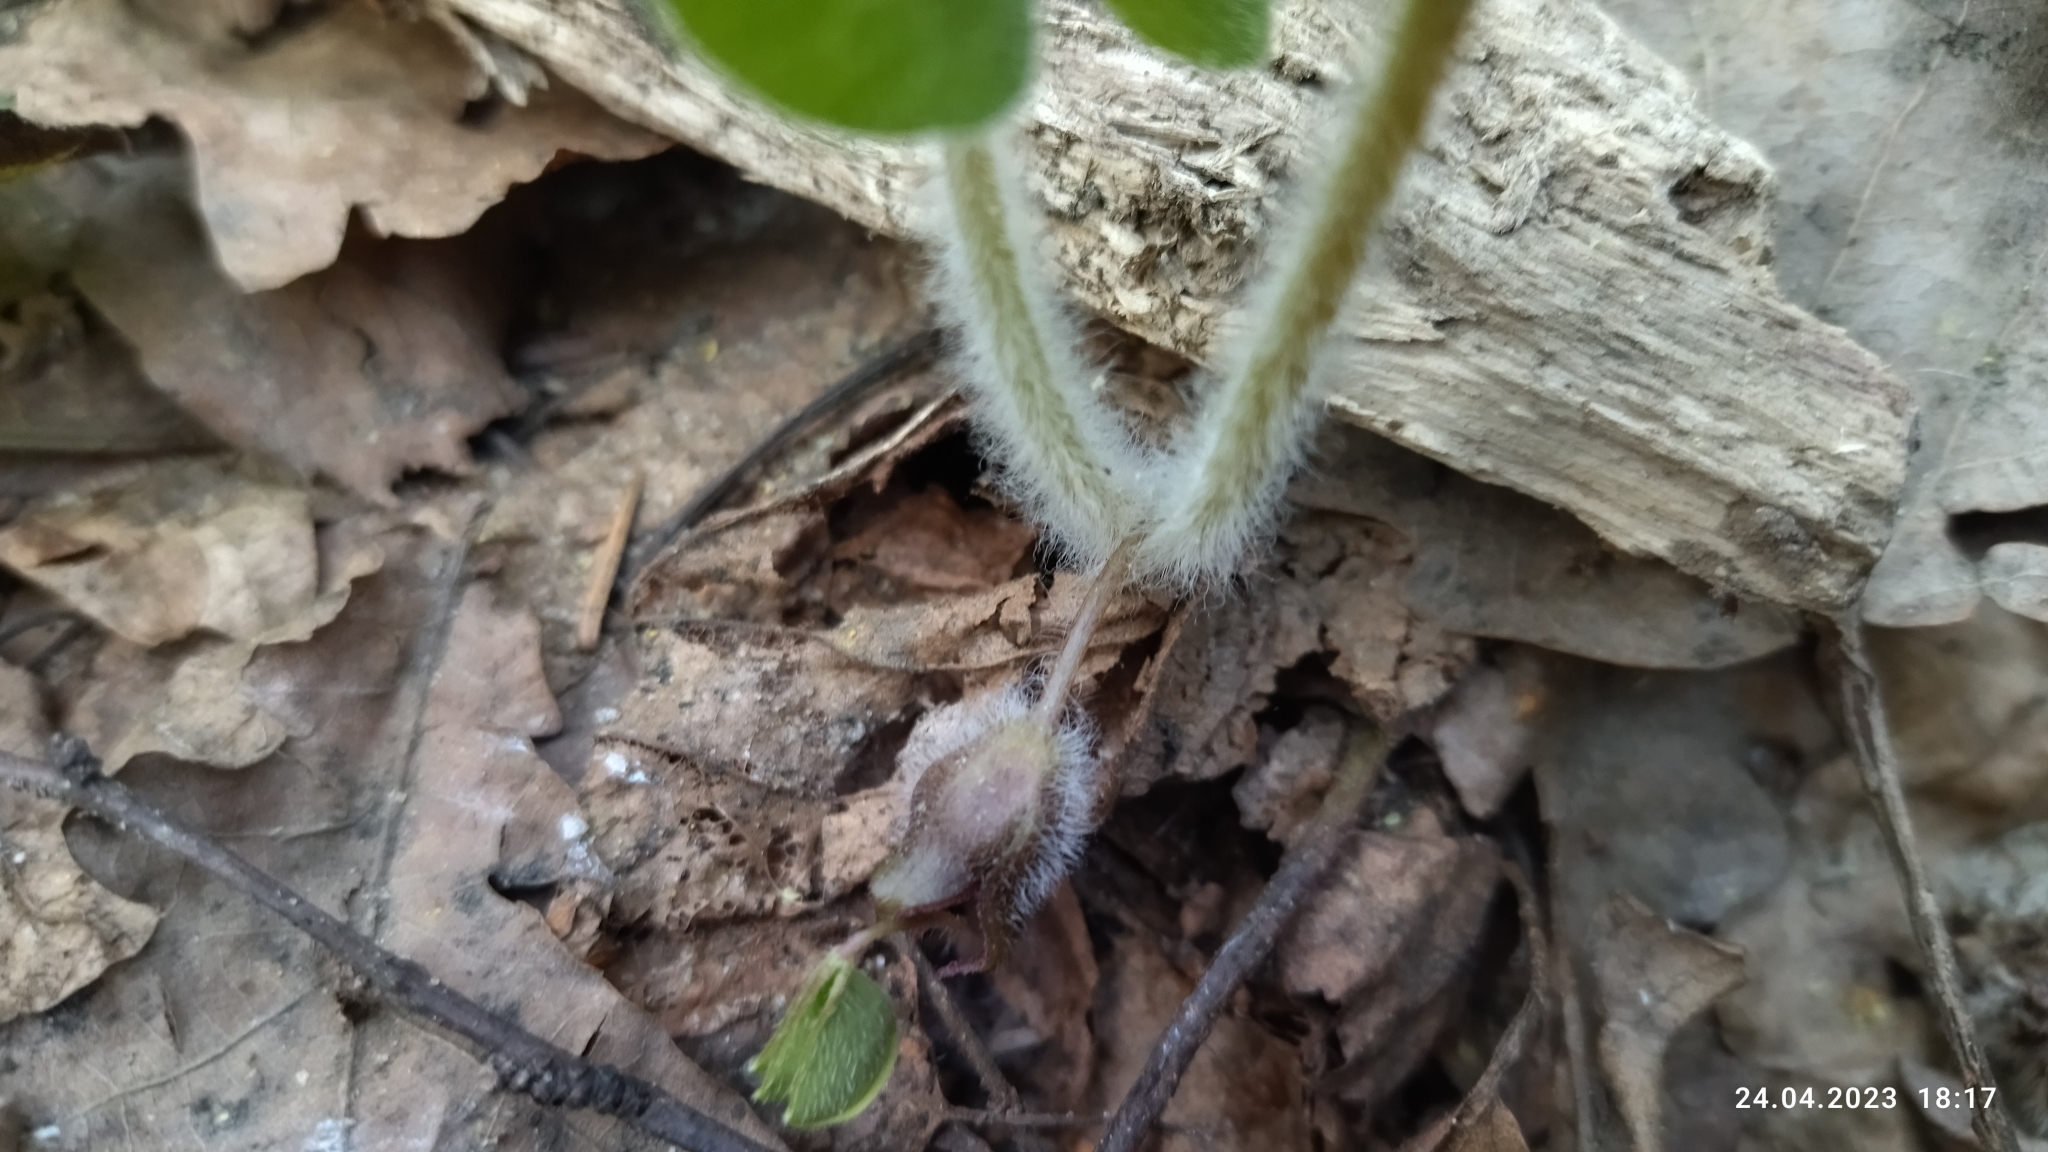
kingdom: Plantae
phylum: Tracheophyta
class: Magnoliopsida
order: Piperales
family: Aristolochiaceae
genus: Asarum
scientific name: Asarum europaeum
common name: Asarabacca
